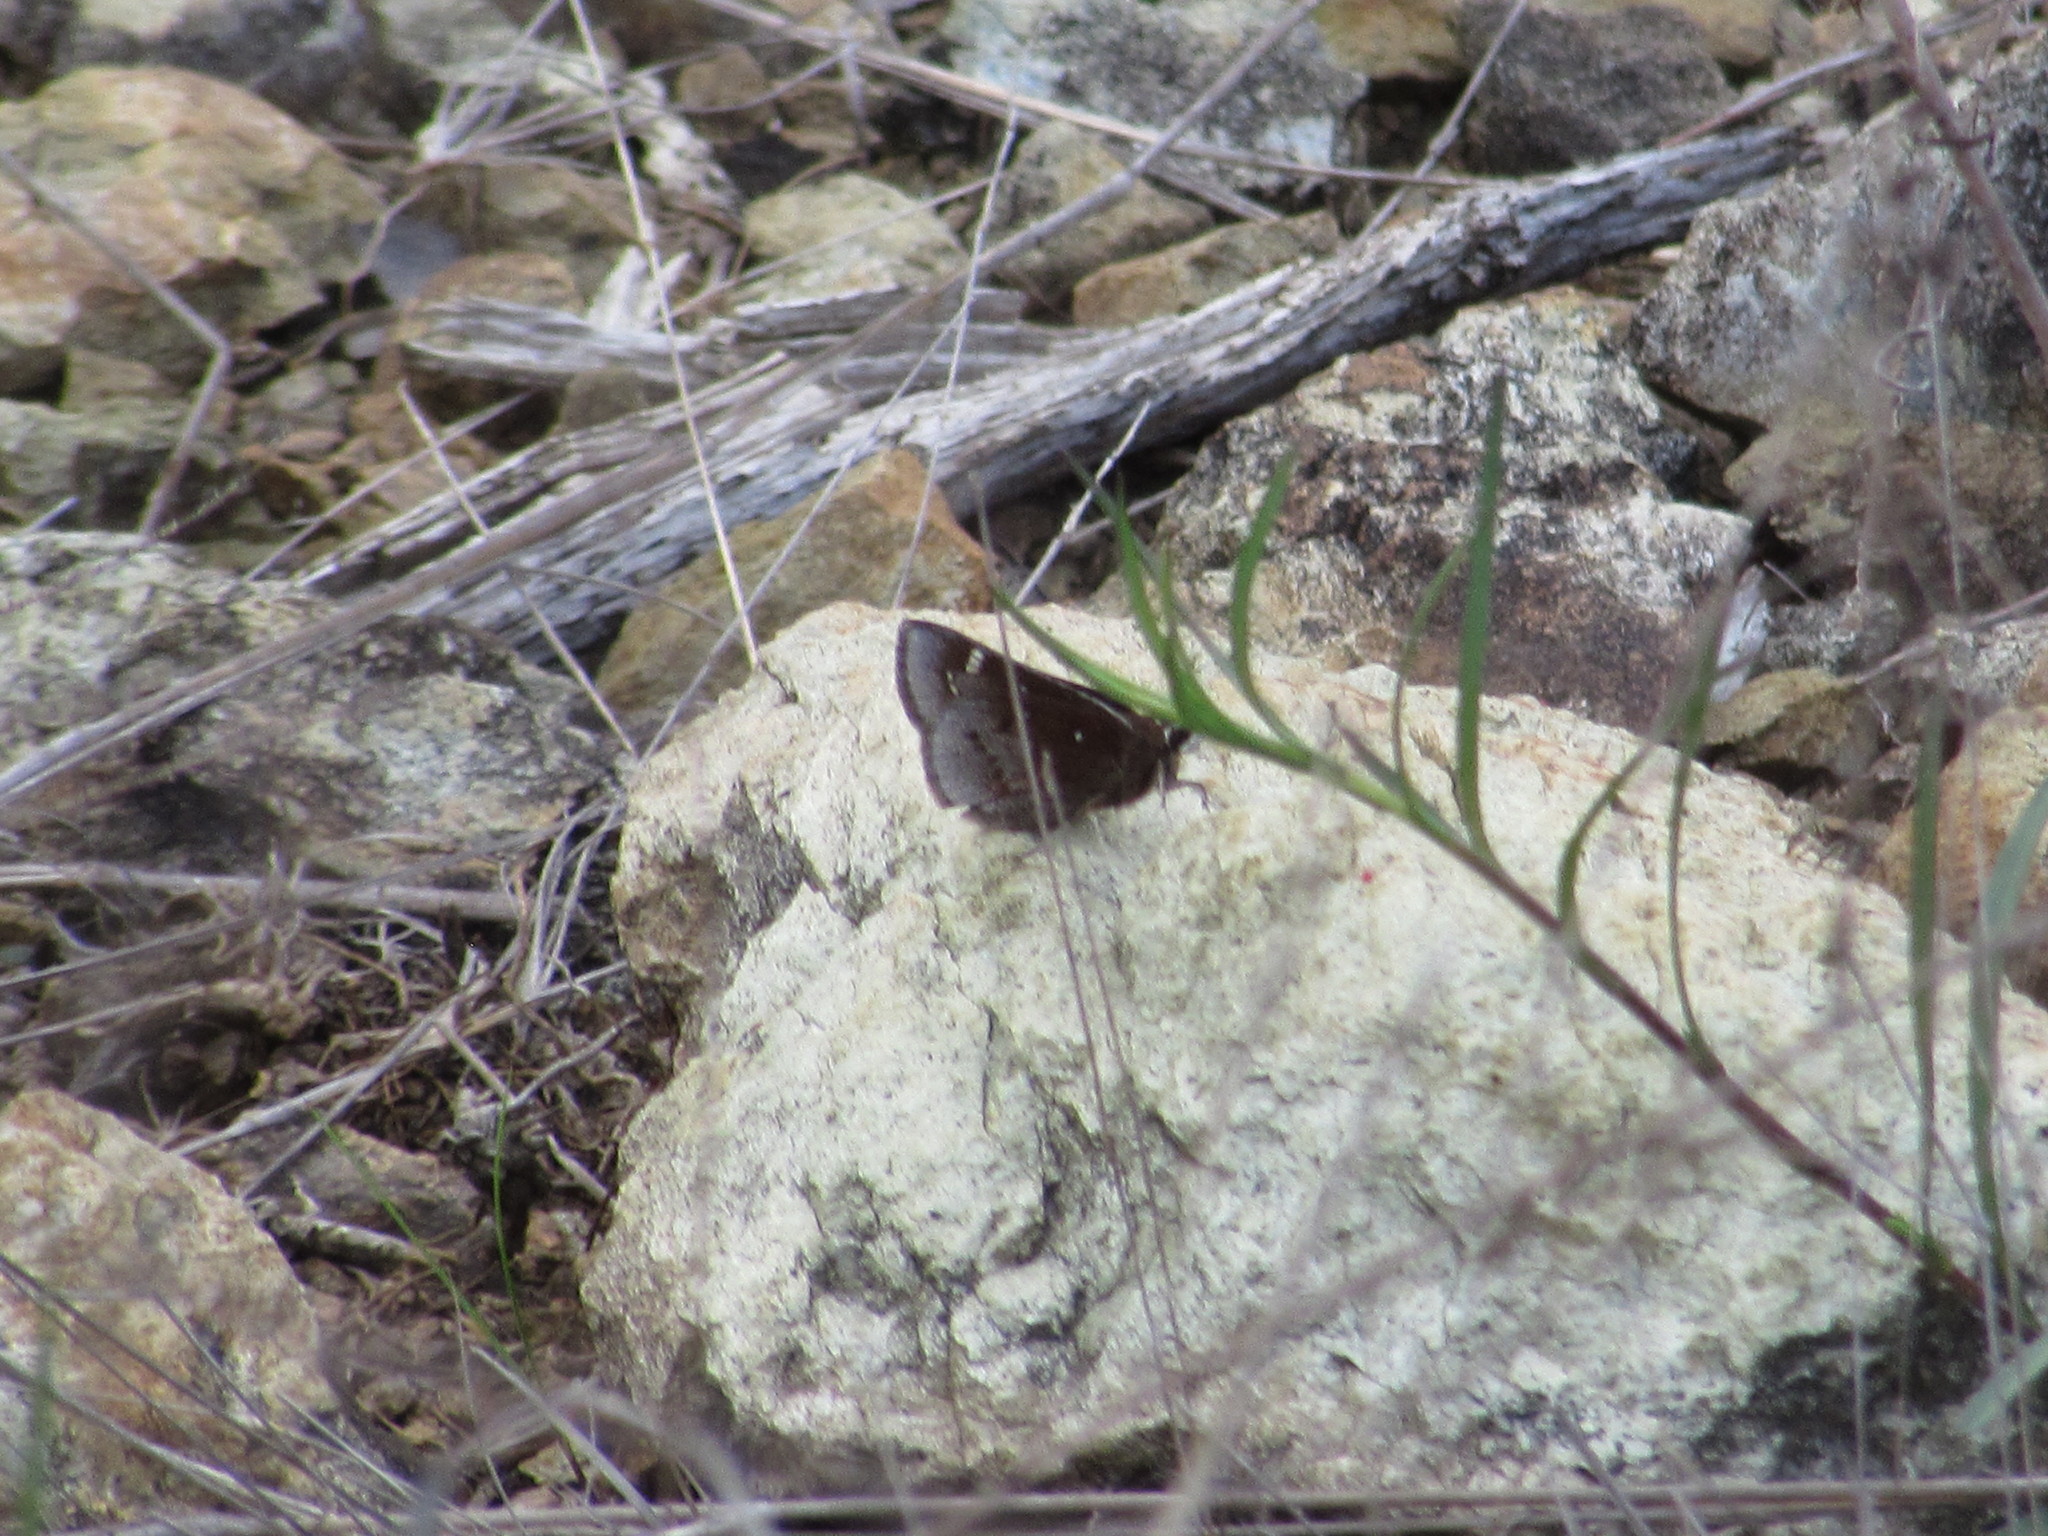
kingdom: Animalia
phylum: Arthropoda
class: Insecta
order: Lepidoptera
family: Hesperiidae
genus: Atrytonopsis
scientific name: Atrytonopsis hianna
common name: Dusted skipper
